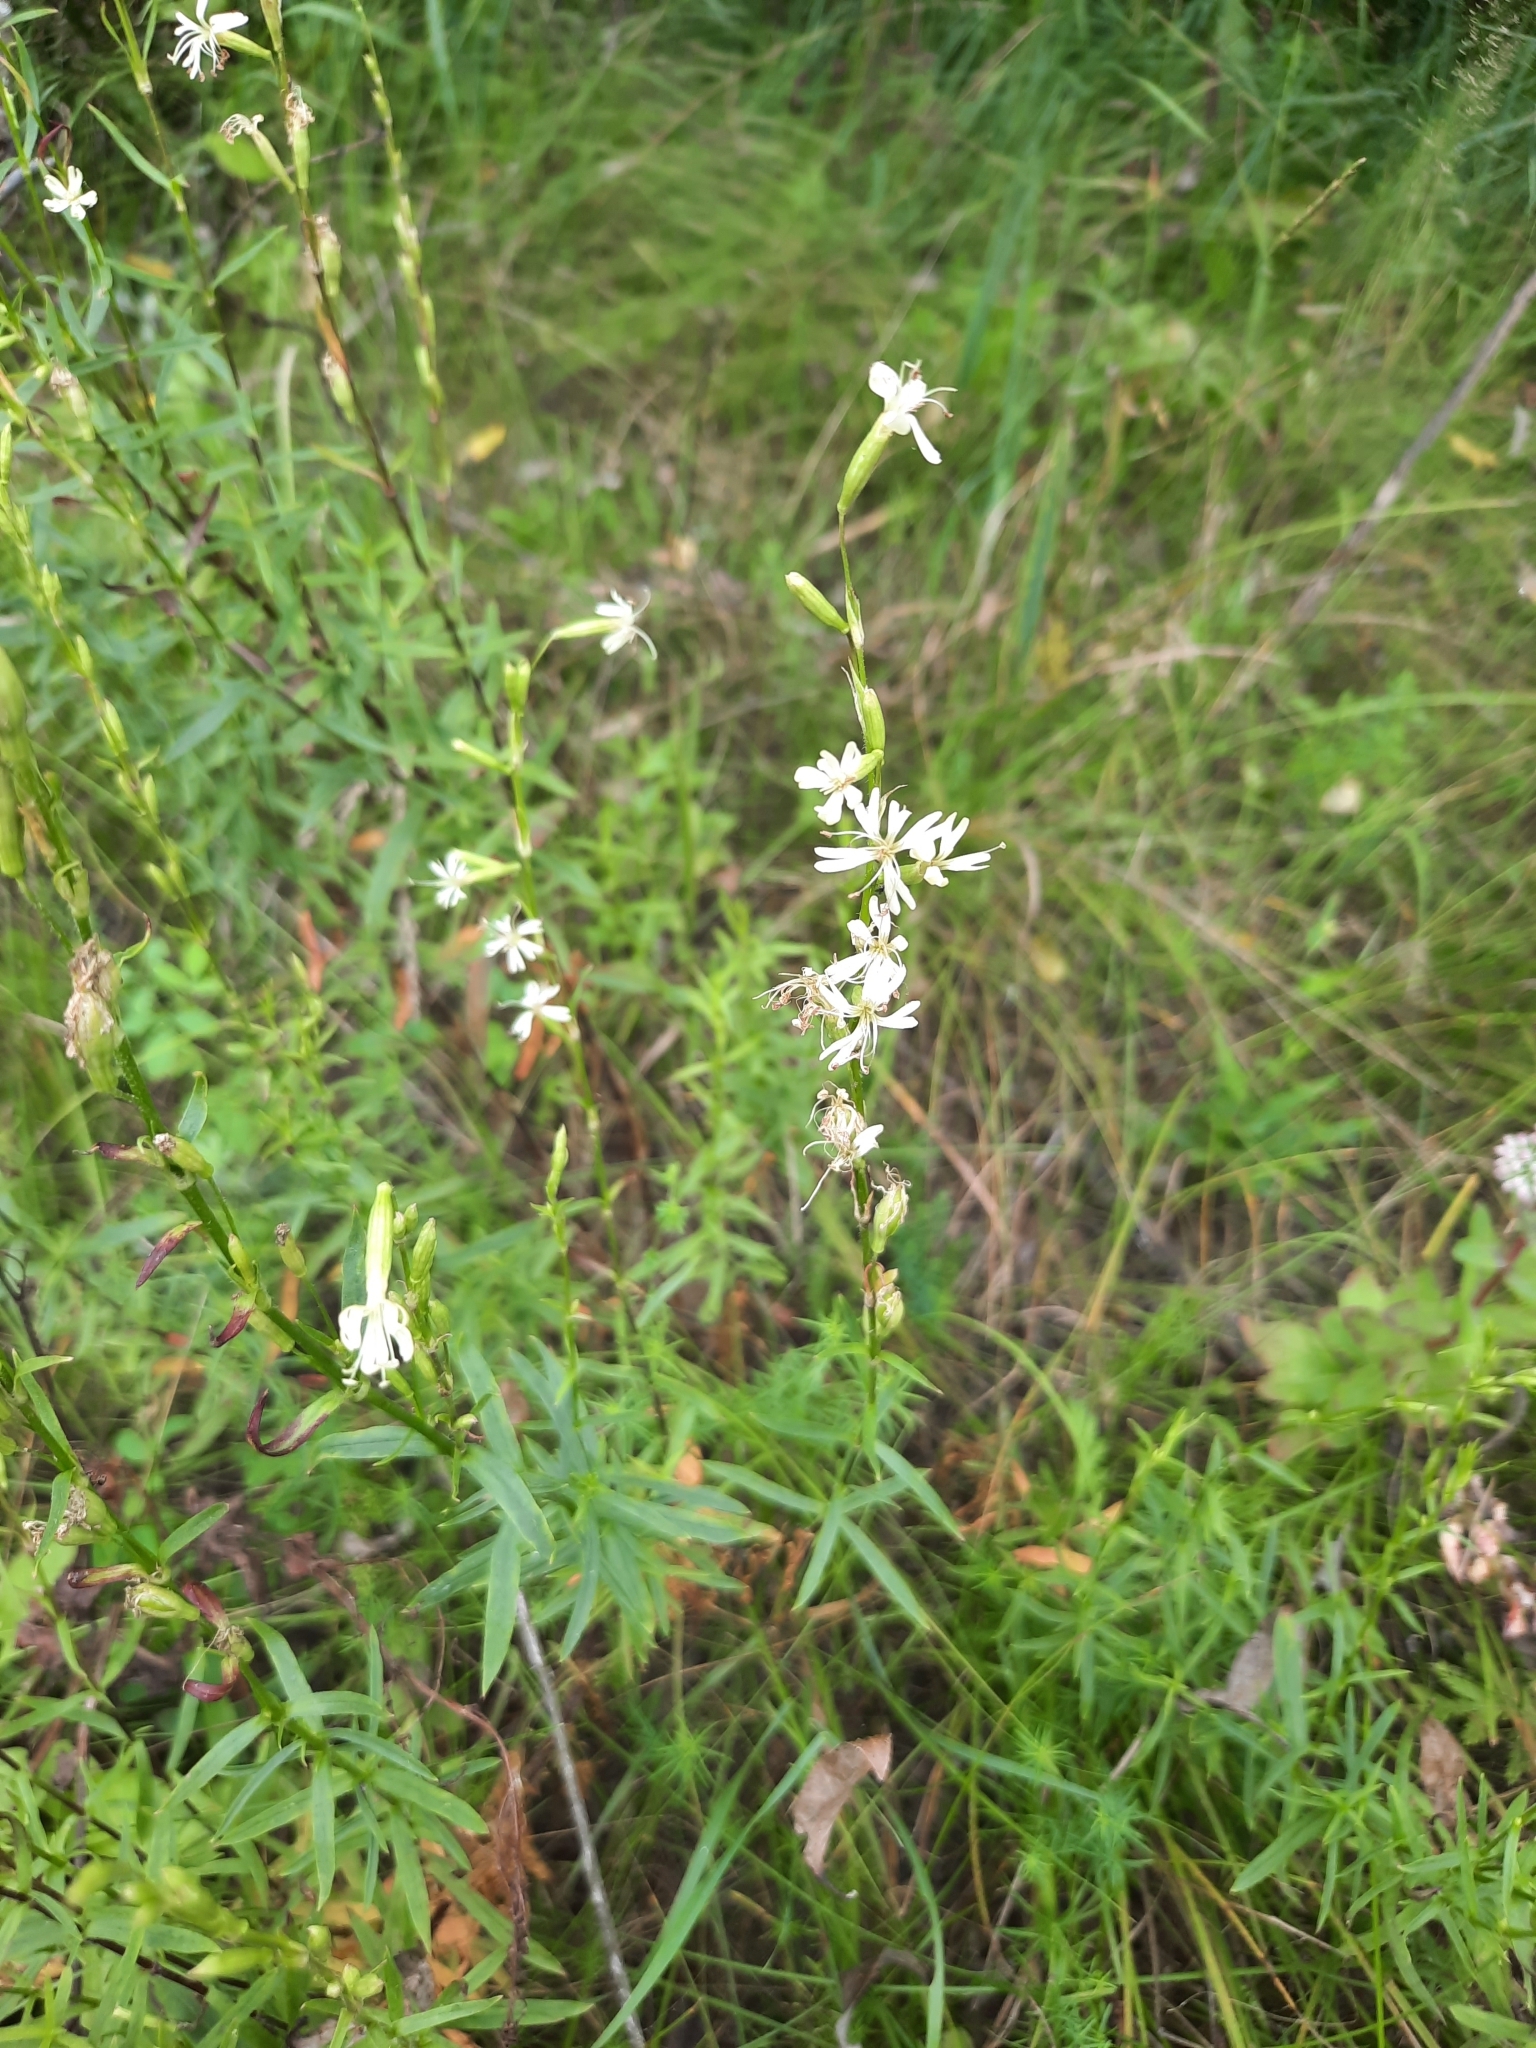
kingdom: Plantae
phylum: Tracheophyta
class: Magnoliopsida
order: Caryophyllales
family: Caryophyllaceae
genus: Silene
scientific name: Silene tatarica
